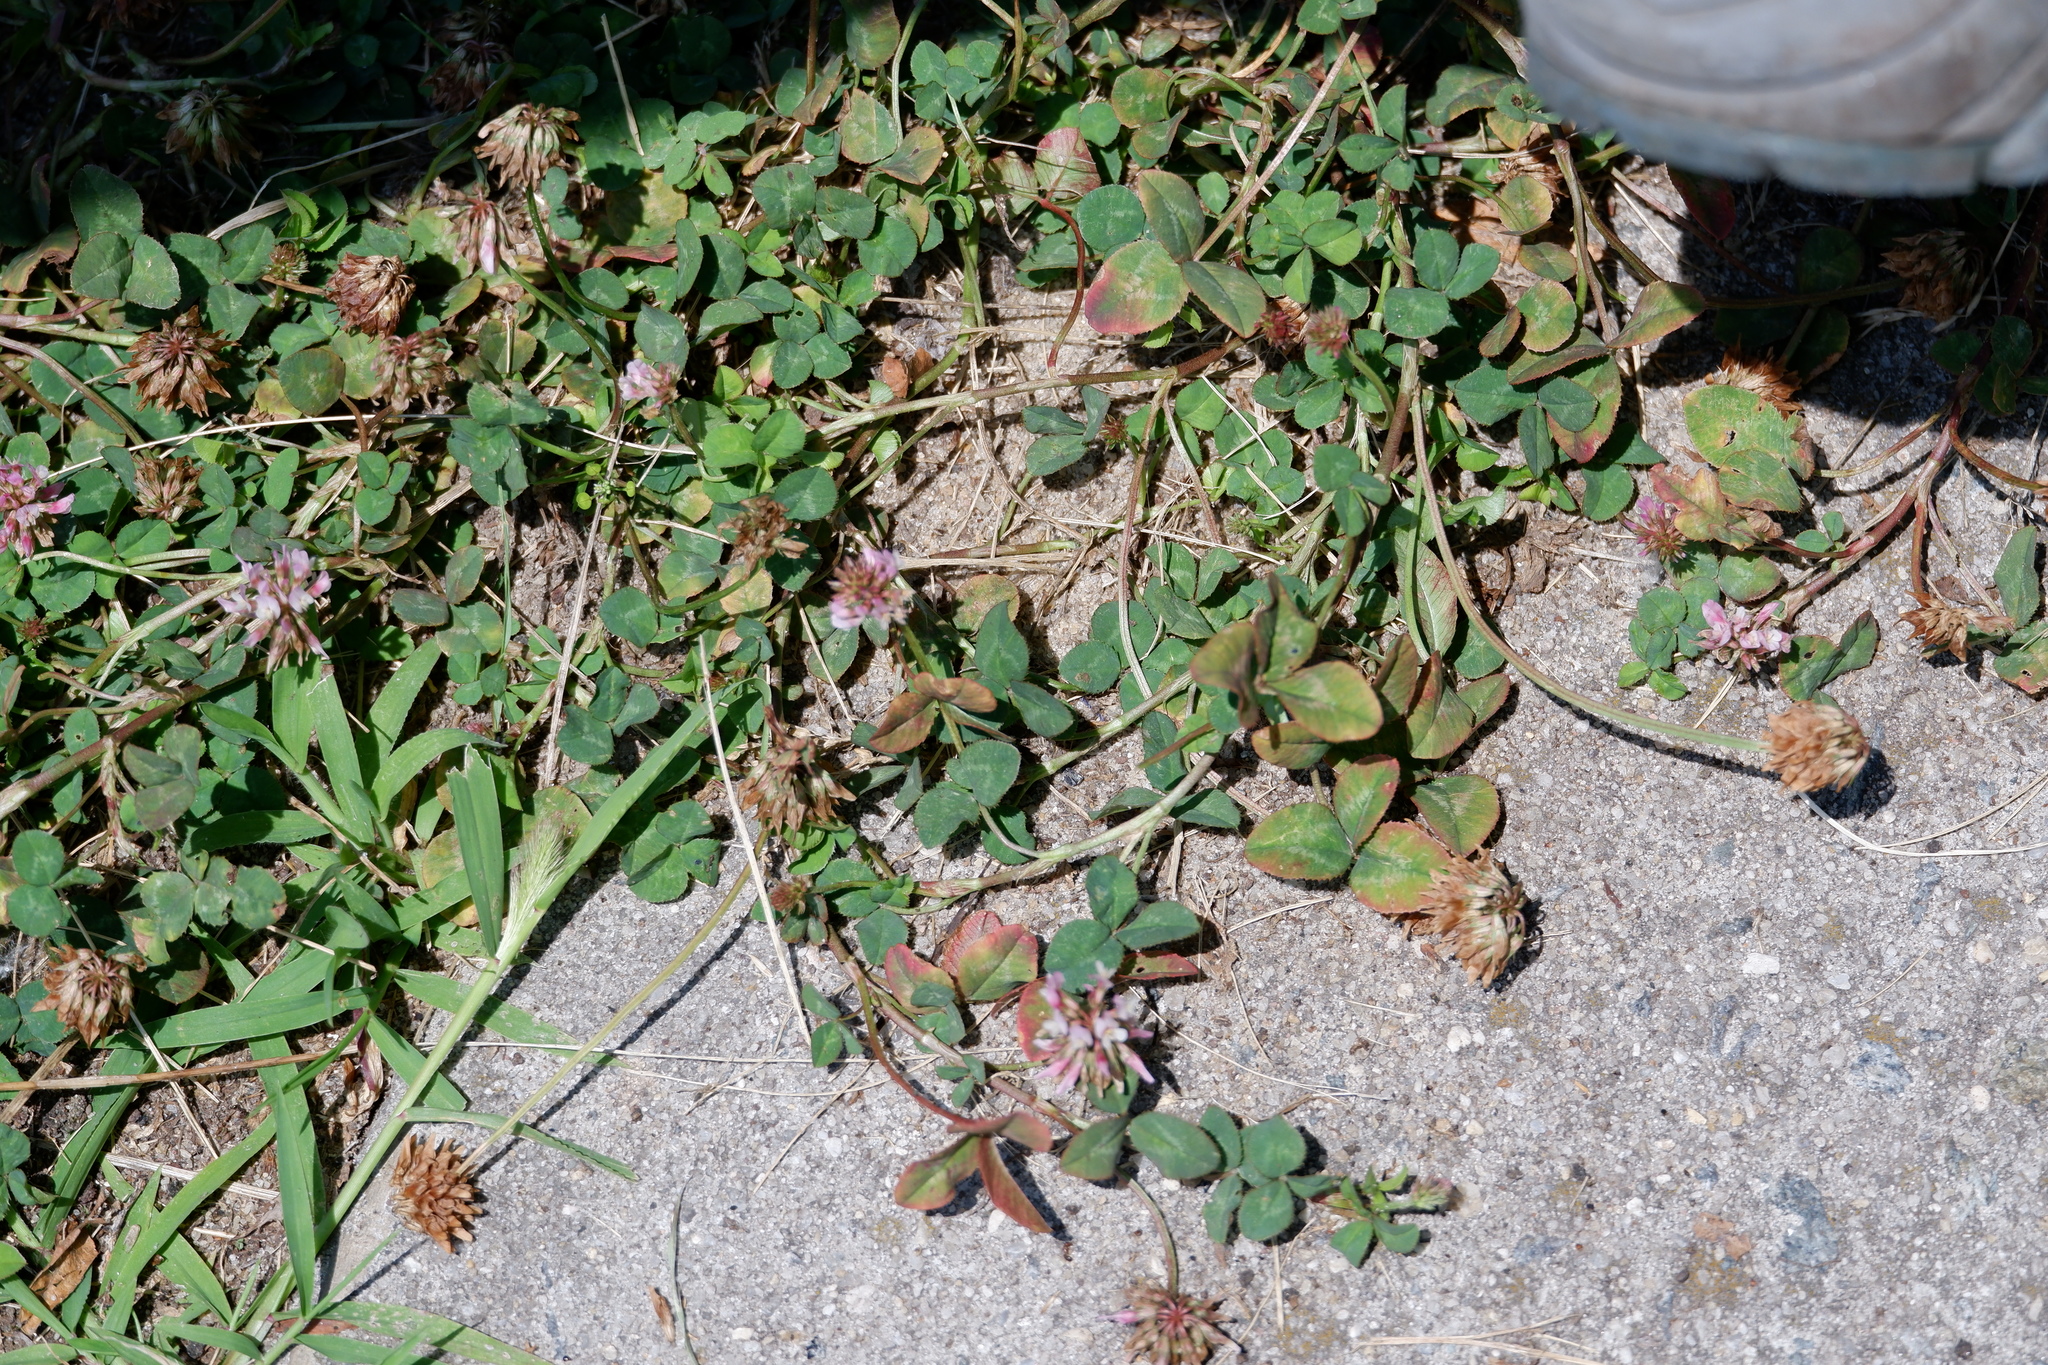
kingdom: Plantae
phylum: Tracheophyta
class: Magnoliopsida
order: Fabales
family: Fabaceae
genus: Trifolium
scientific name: Trifolium repens
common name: White clover
